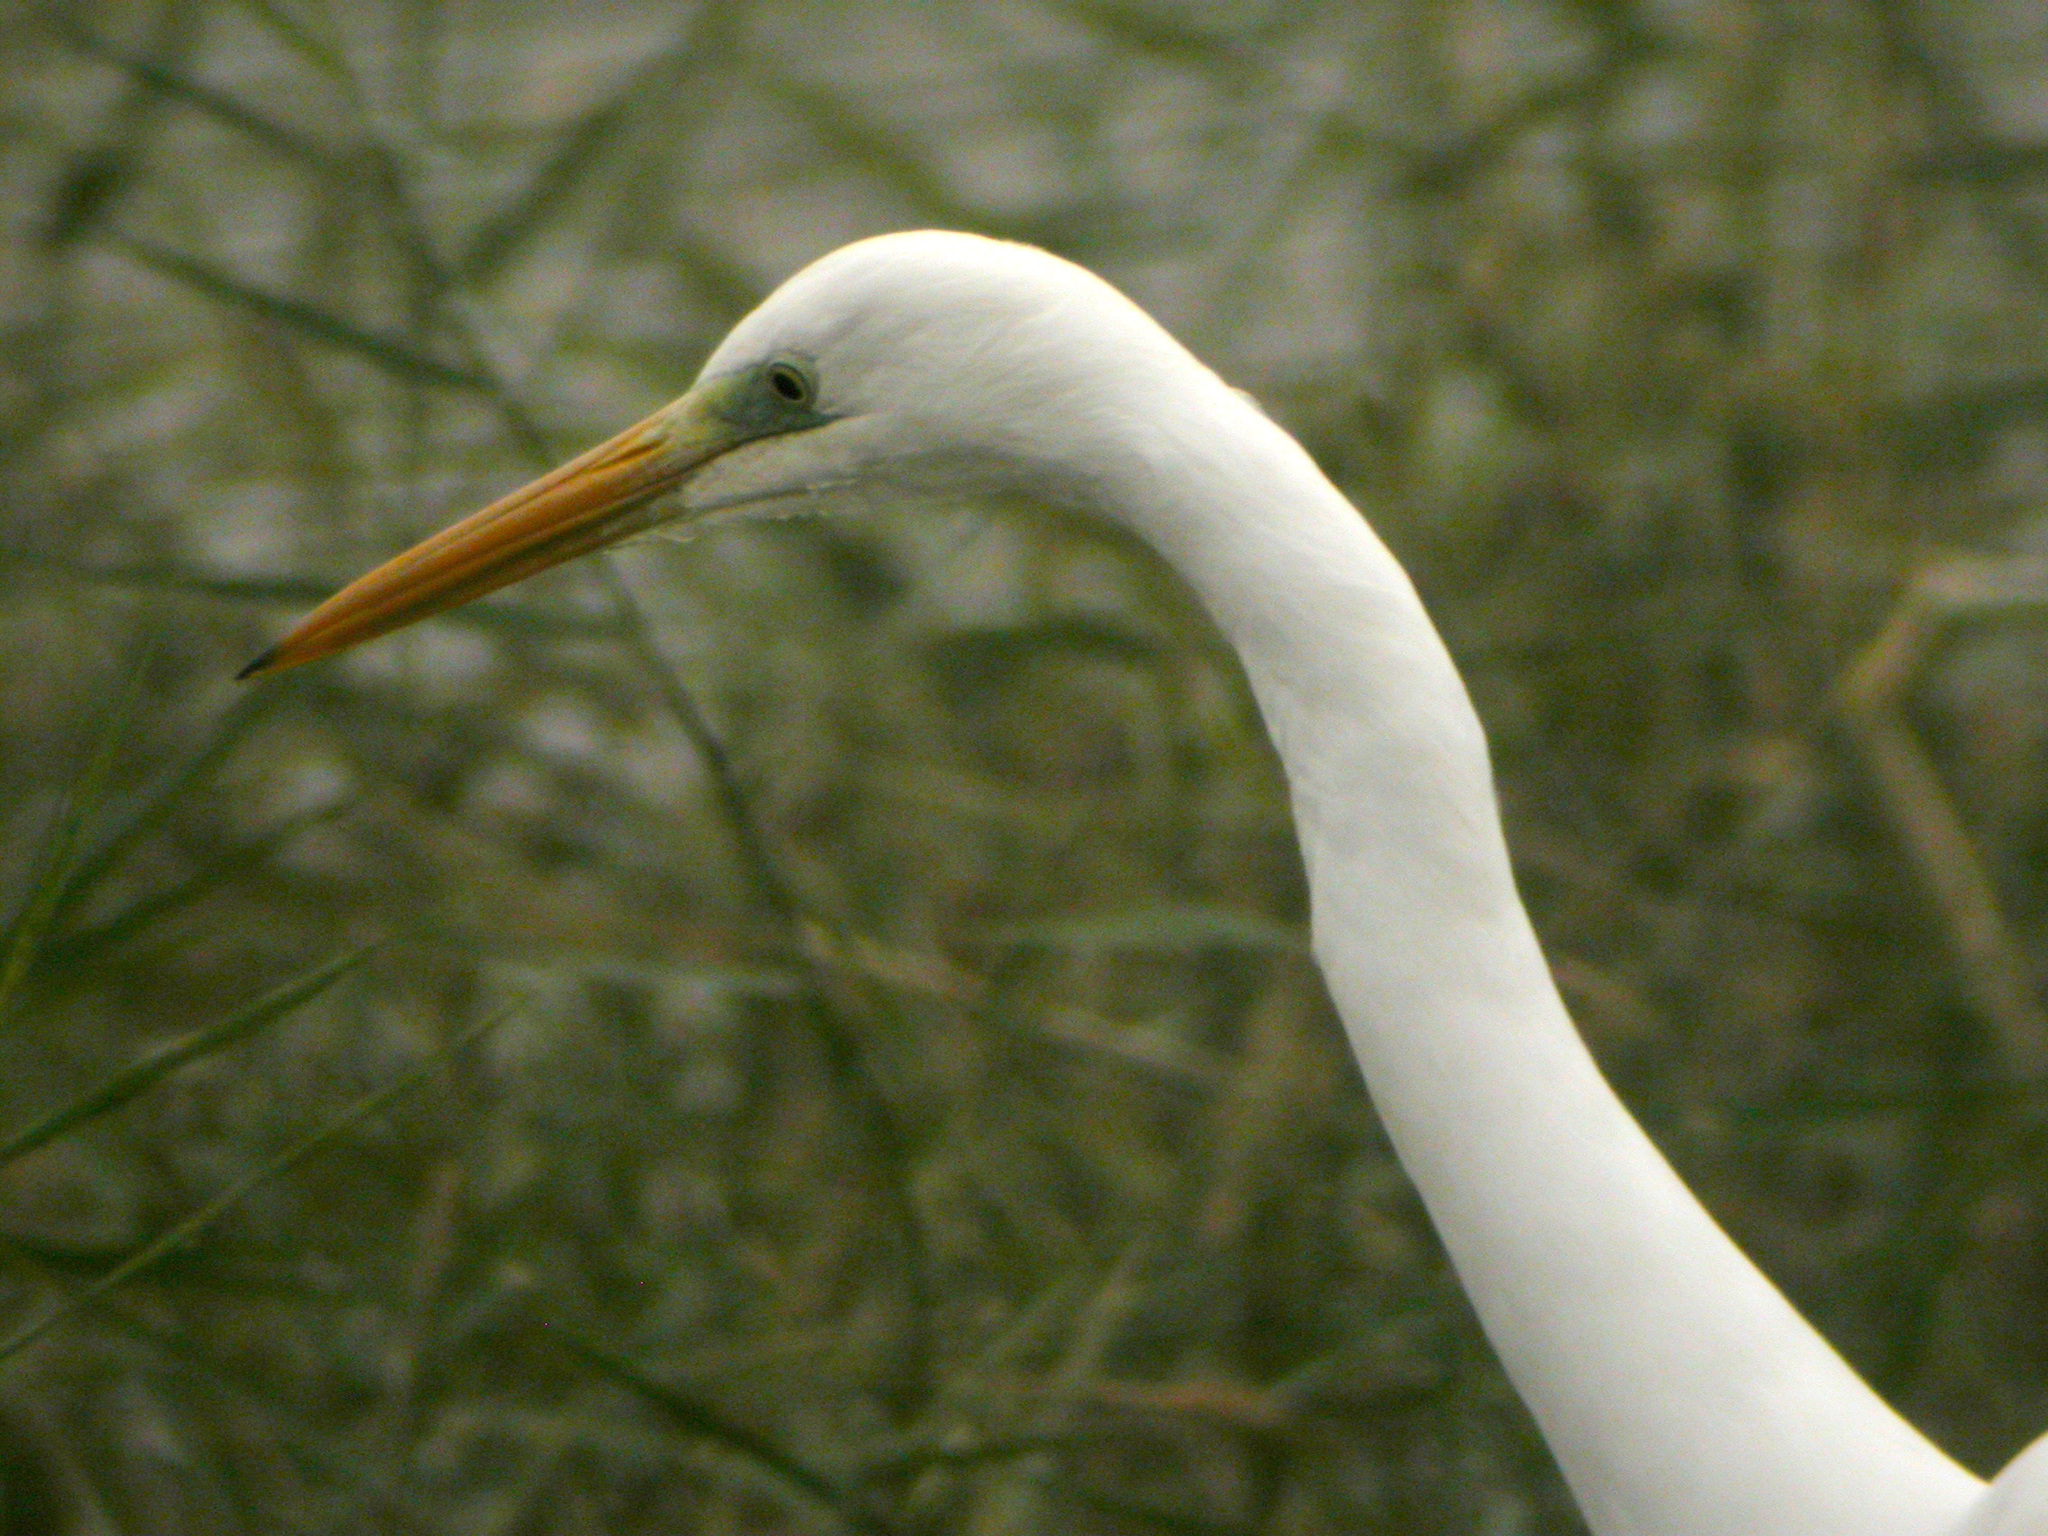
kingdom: Animalia
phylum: Chordata
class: Aves
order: Pelecaniformes
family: Ardeidae
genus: Ardea
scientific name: Ardea alba
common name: Great egret
